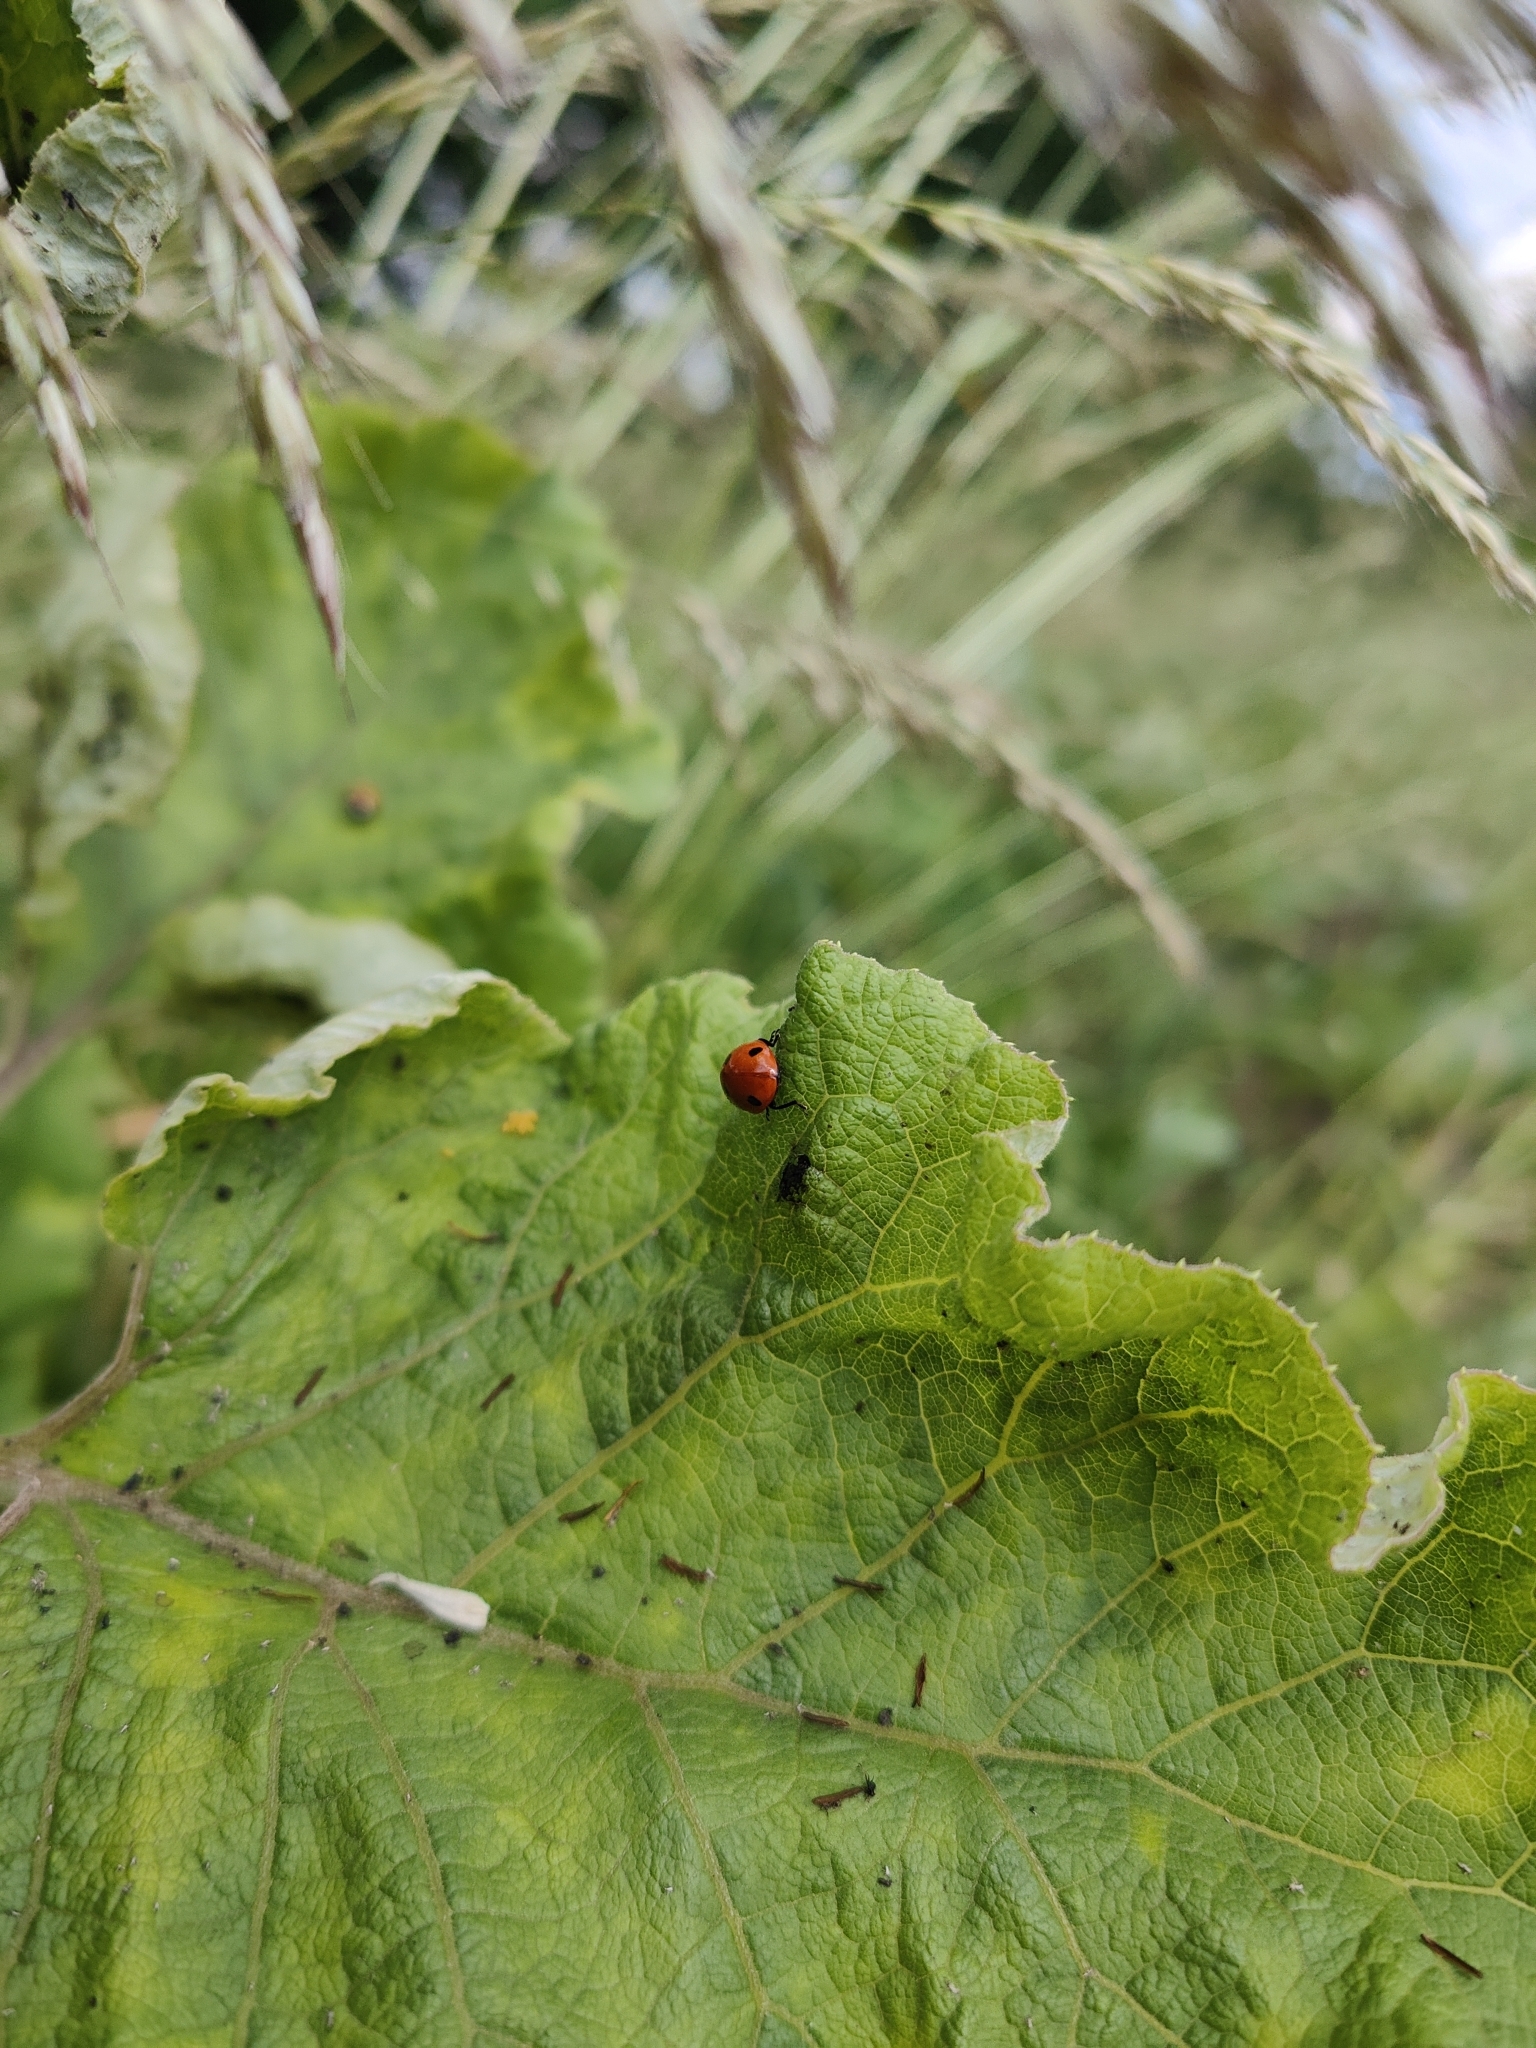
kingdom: Animalia
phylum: Arthropoda
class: Insecta
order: Coleoptera
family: Coccinellidae
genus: Coccinella
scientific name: Coccinella septempunctata
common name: Sevenspotted lady beetle
